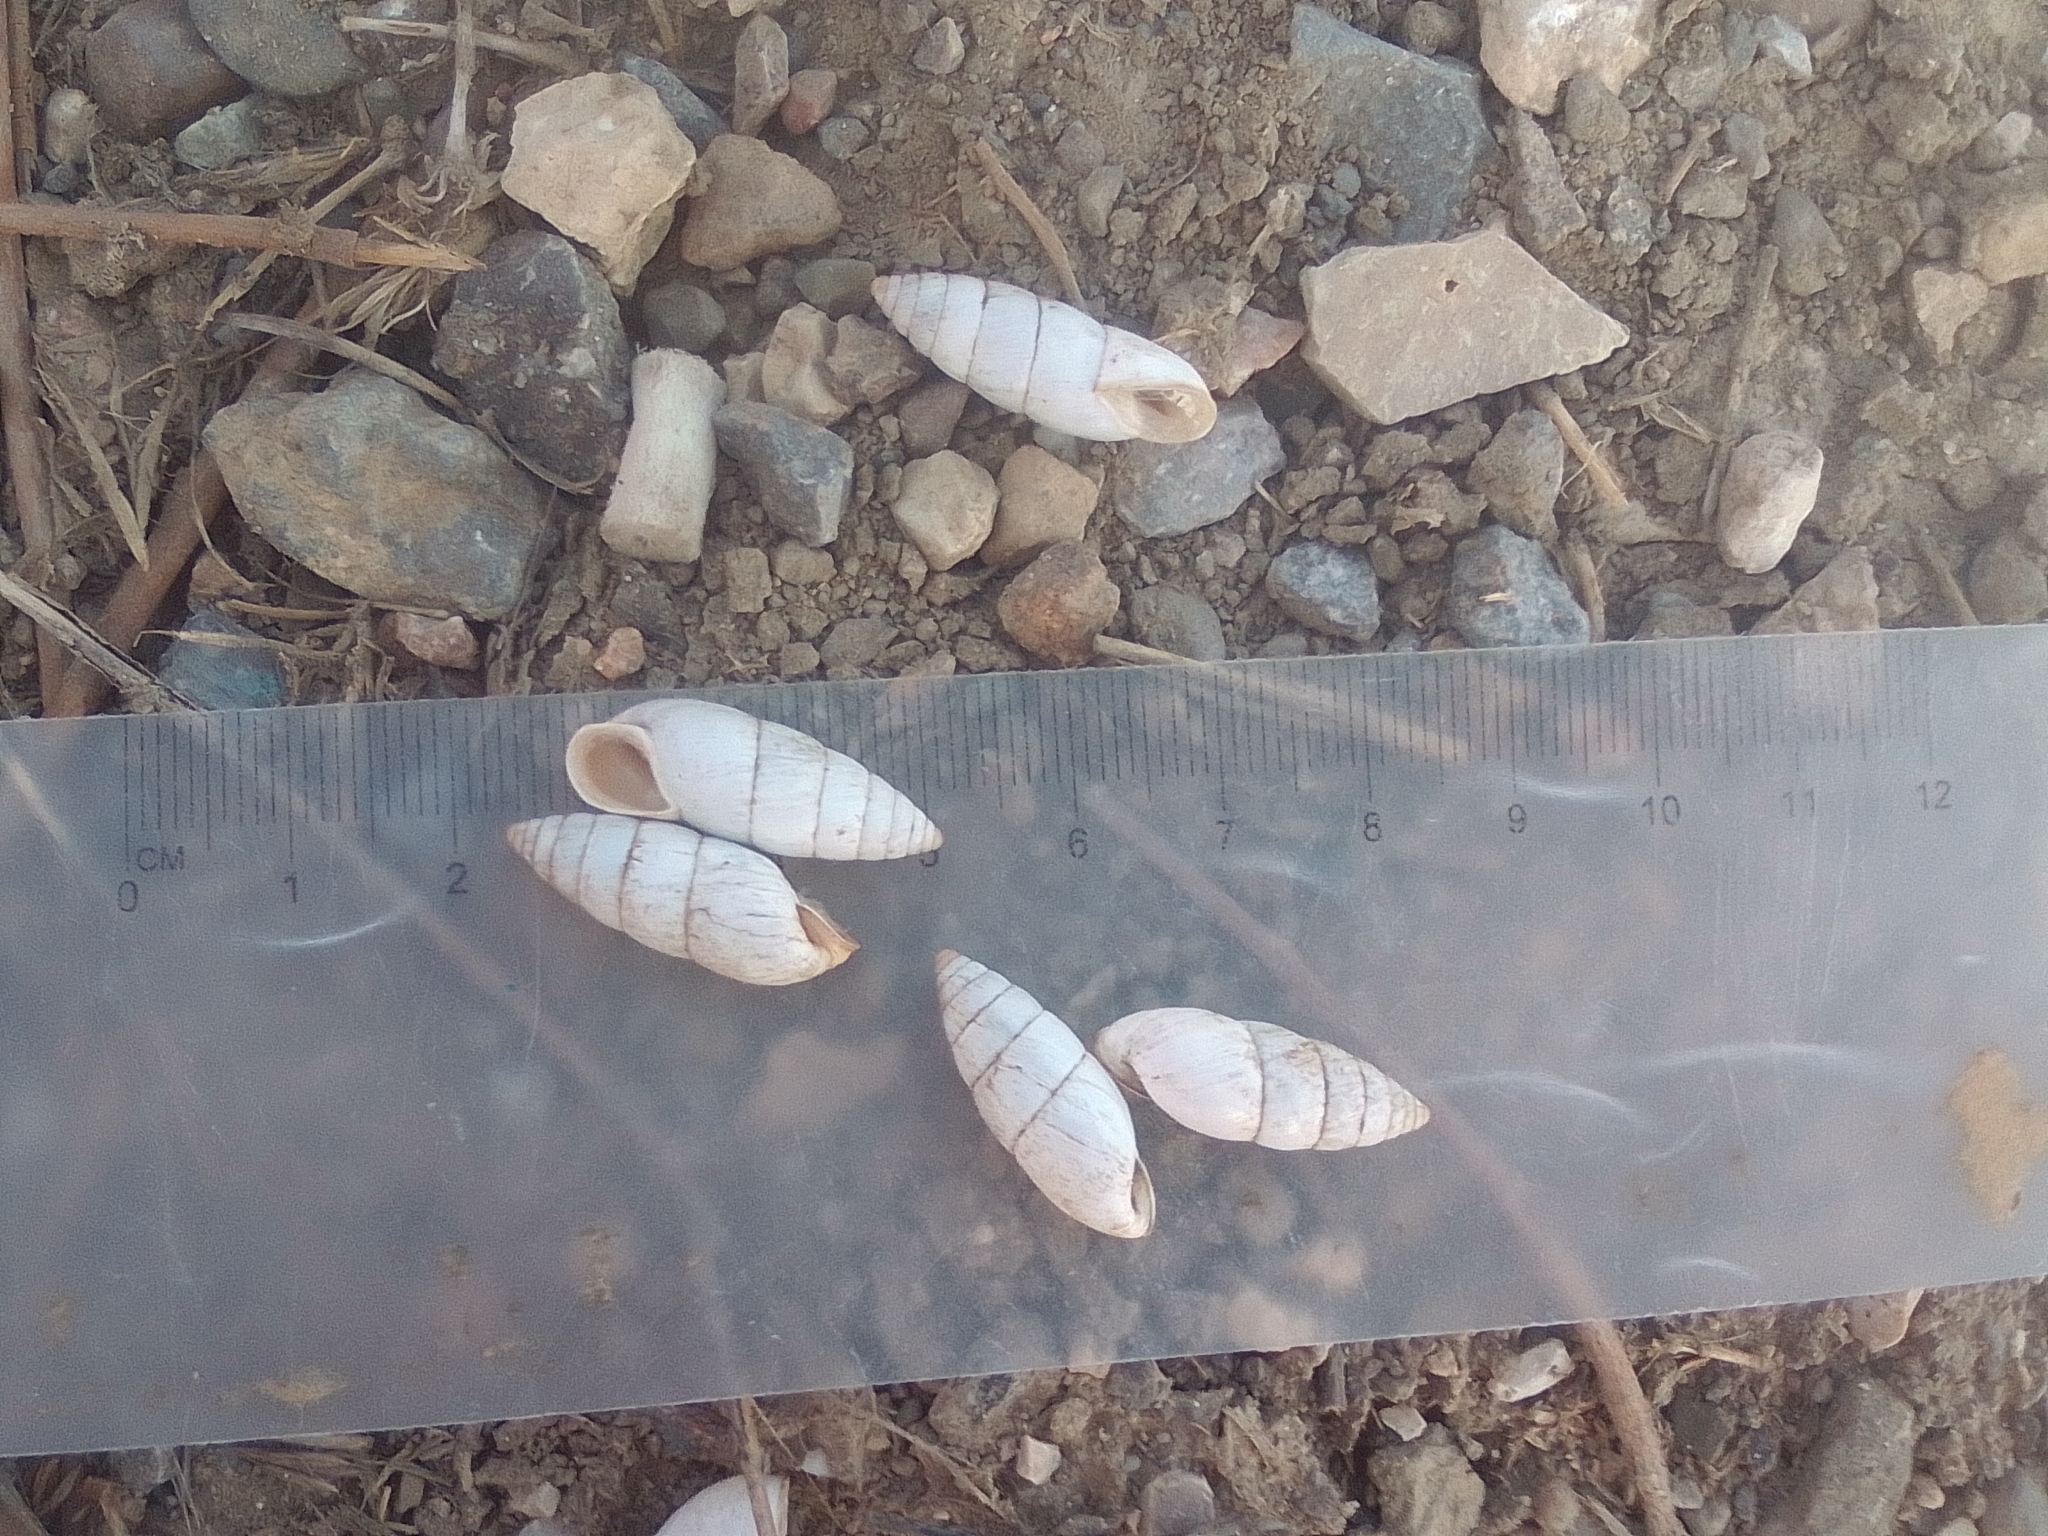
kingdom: Animalia
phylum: Mollusca
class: Gastropoda
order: Stylommatophora
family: Enidae
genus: Brephulopsis
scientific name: Brephulopsis cylindrica
